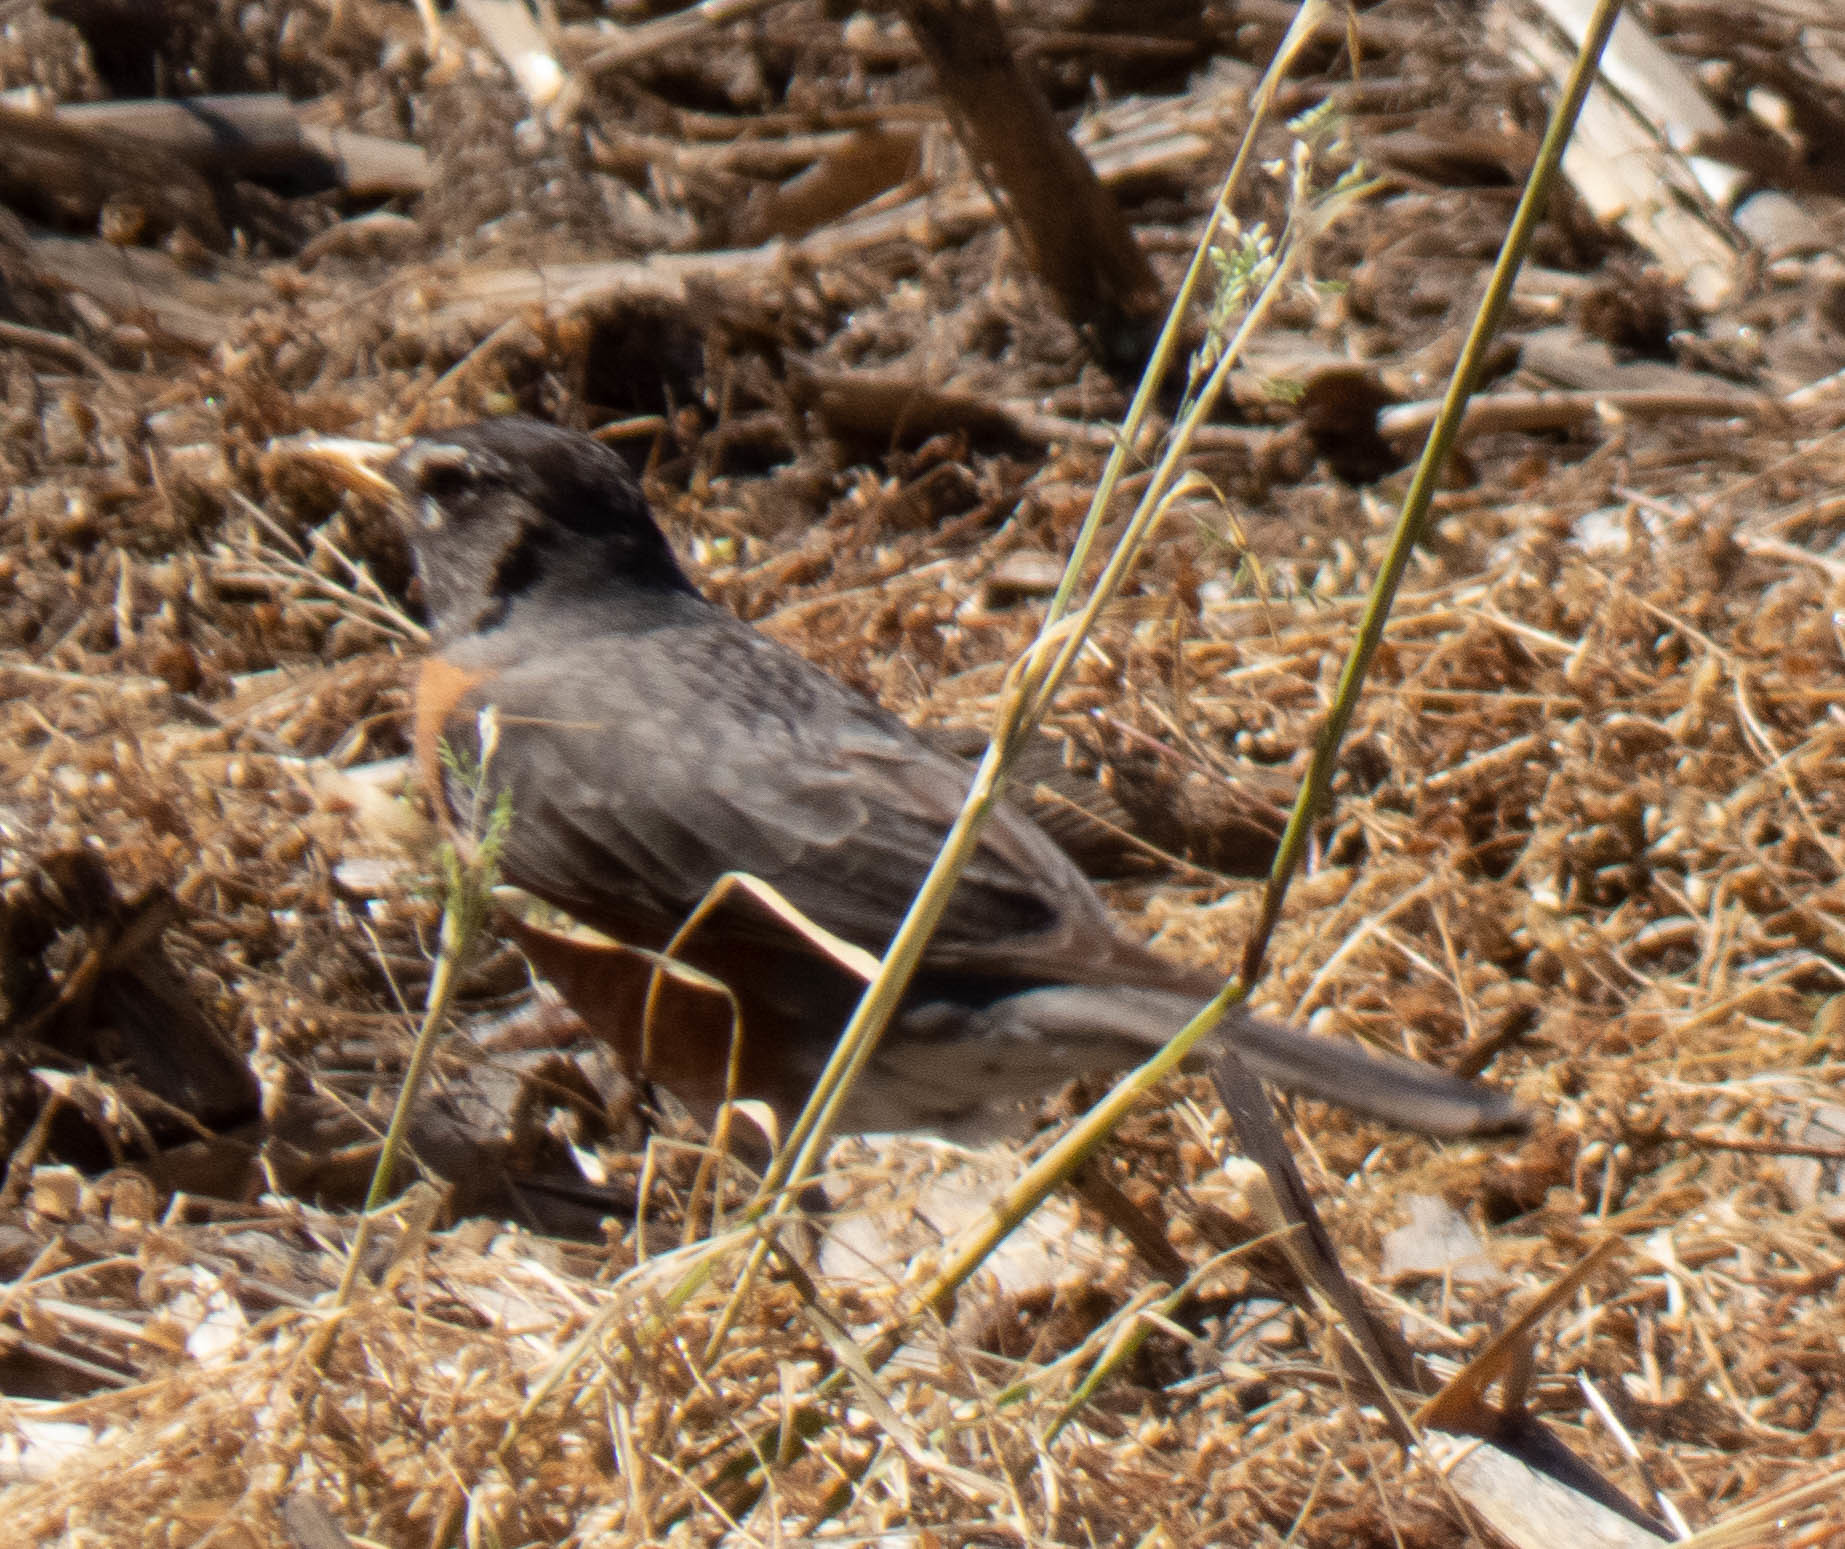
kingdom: Animalia
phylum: Chordata
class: Aves
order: Passeriformes
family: Turdidae
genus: Turdus
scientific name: Turdus migratorius
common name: American robin
